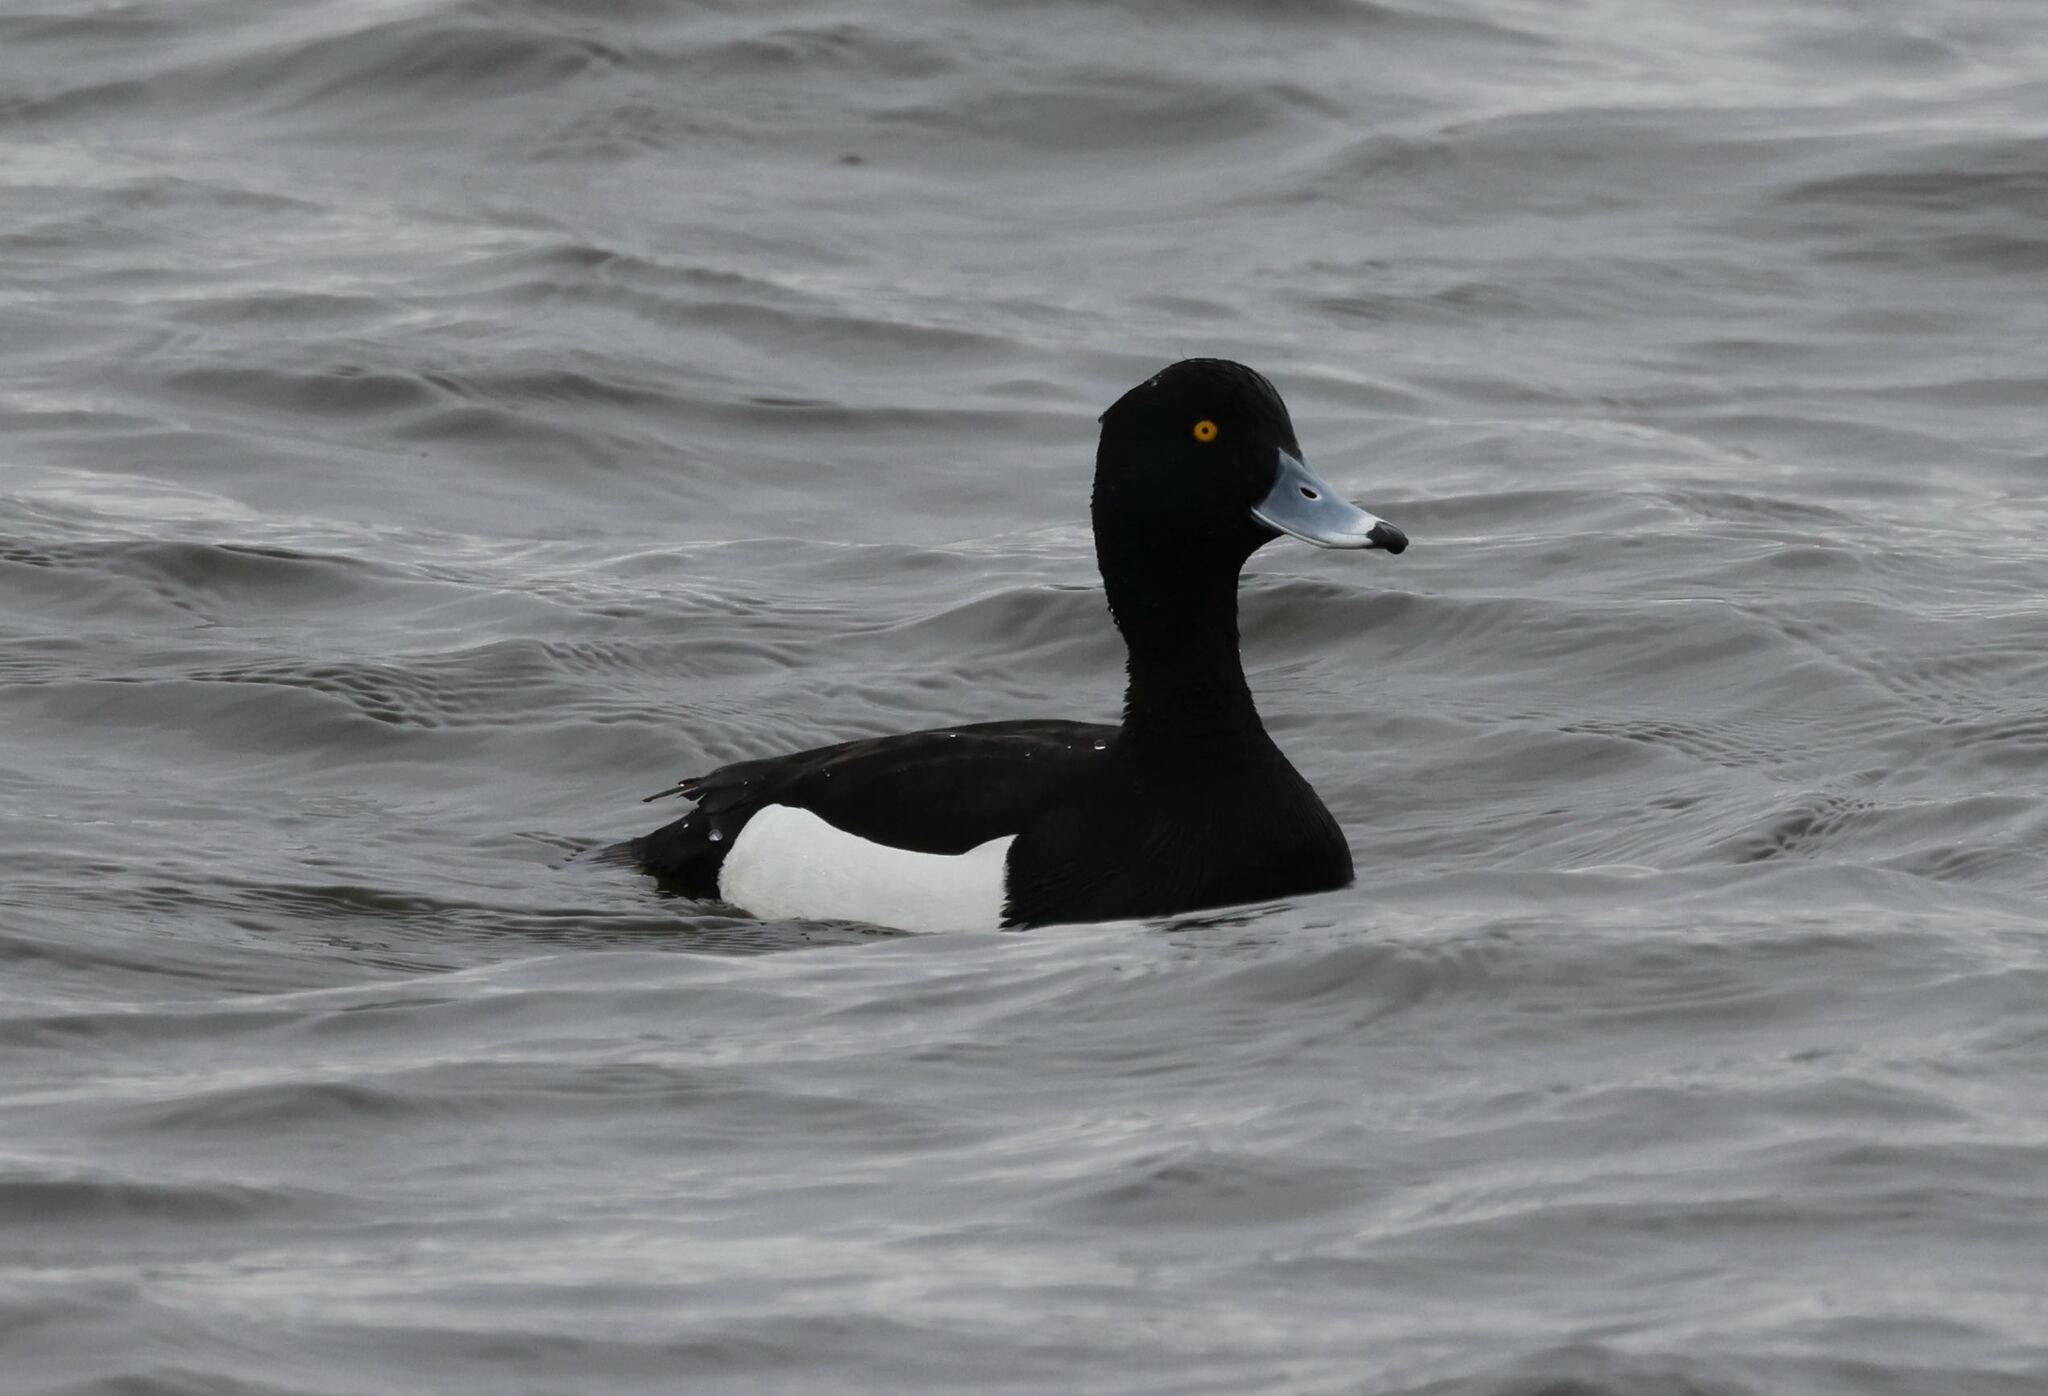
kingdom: Animalia
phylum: Chordata
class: Aves
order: Anseriformes
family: Anatidae
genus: Aythya
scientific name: Aythya fuligula
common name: Tufted duck
